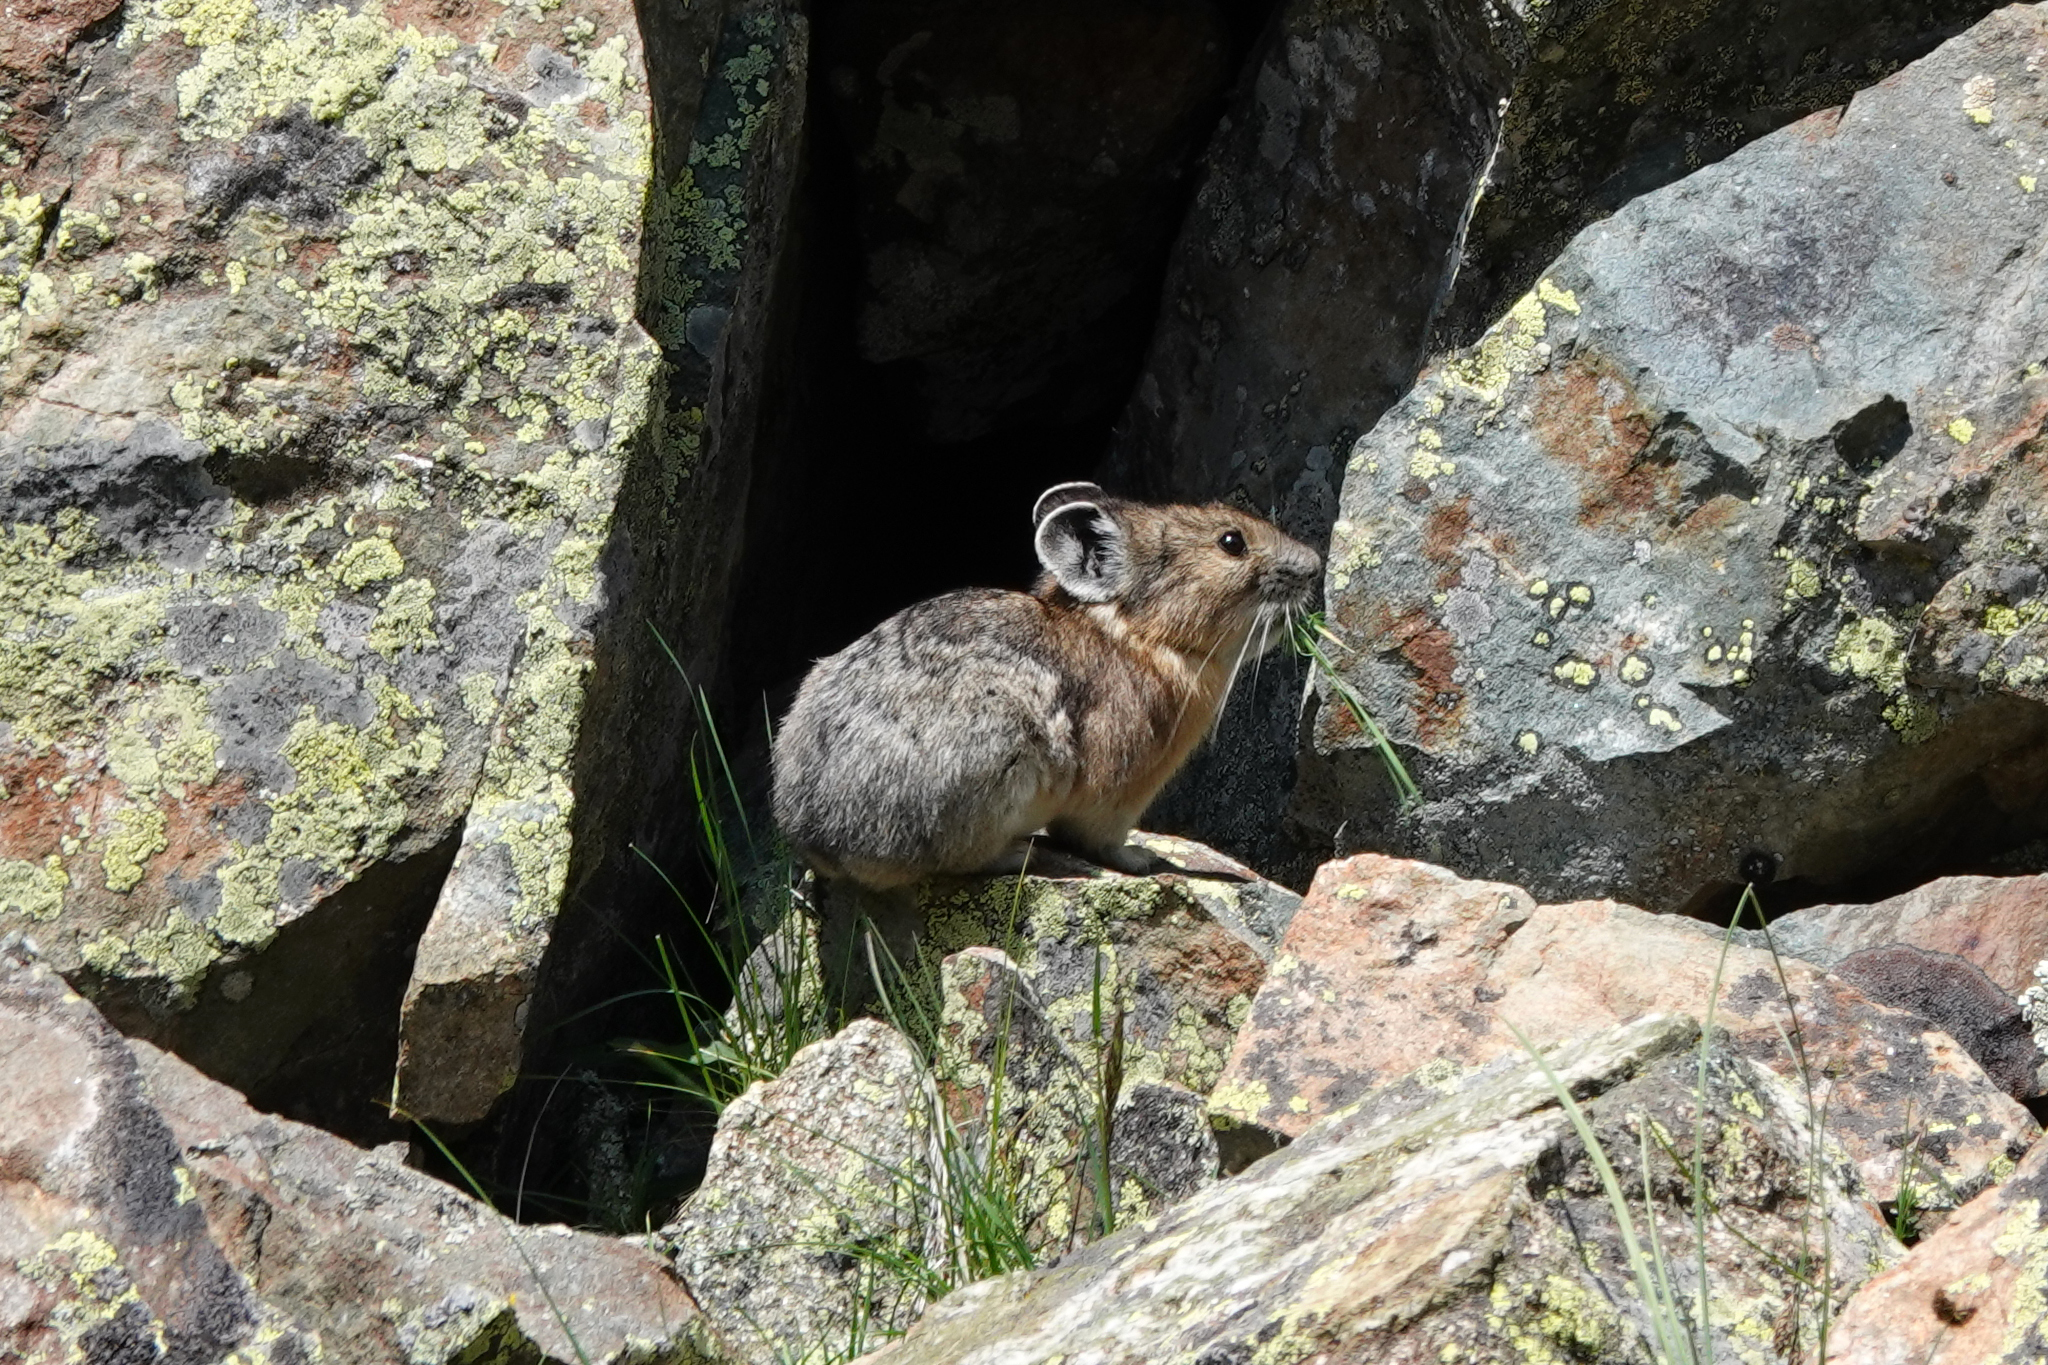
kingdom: Animalia
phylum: Chordata
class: Mammalia
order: Lagomorpha
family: Ochotonidae
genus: Ochotona
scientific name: Ochotona princeps
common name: American pika
